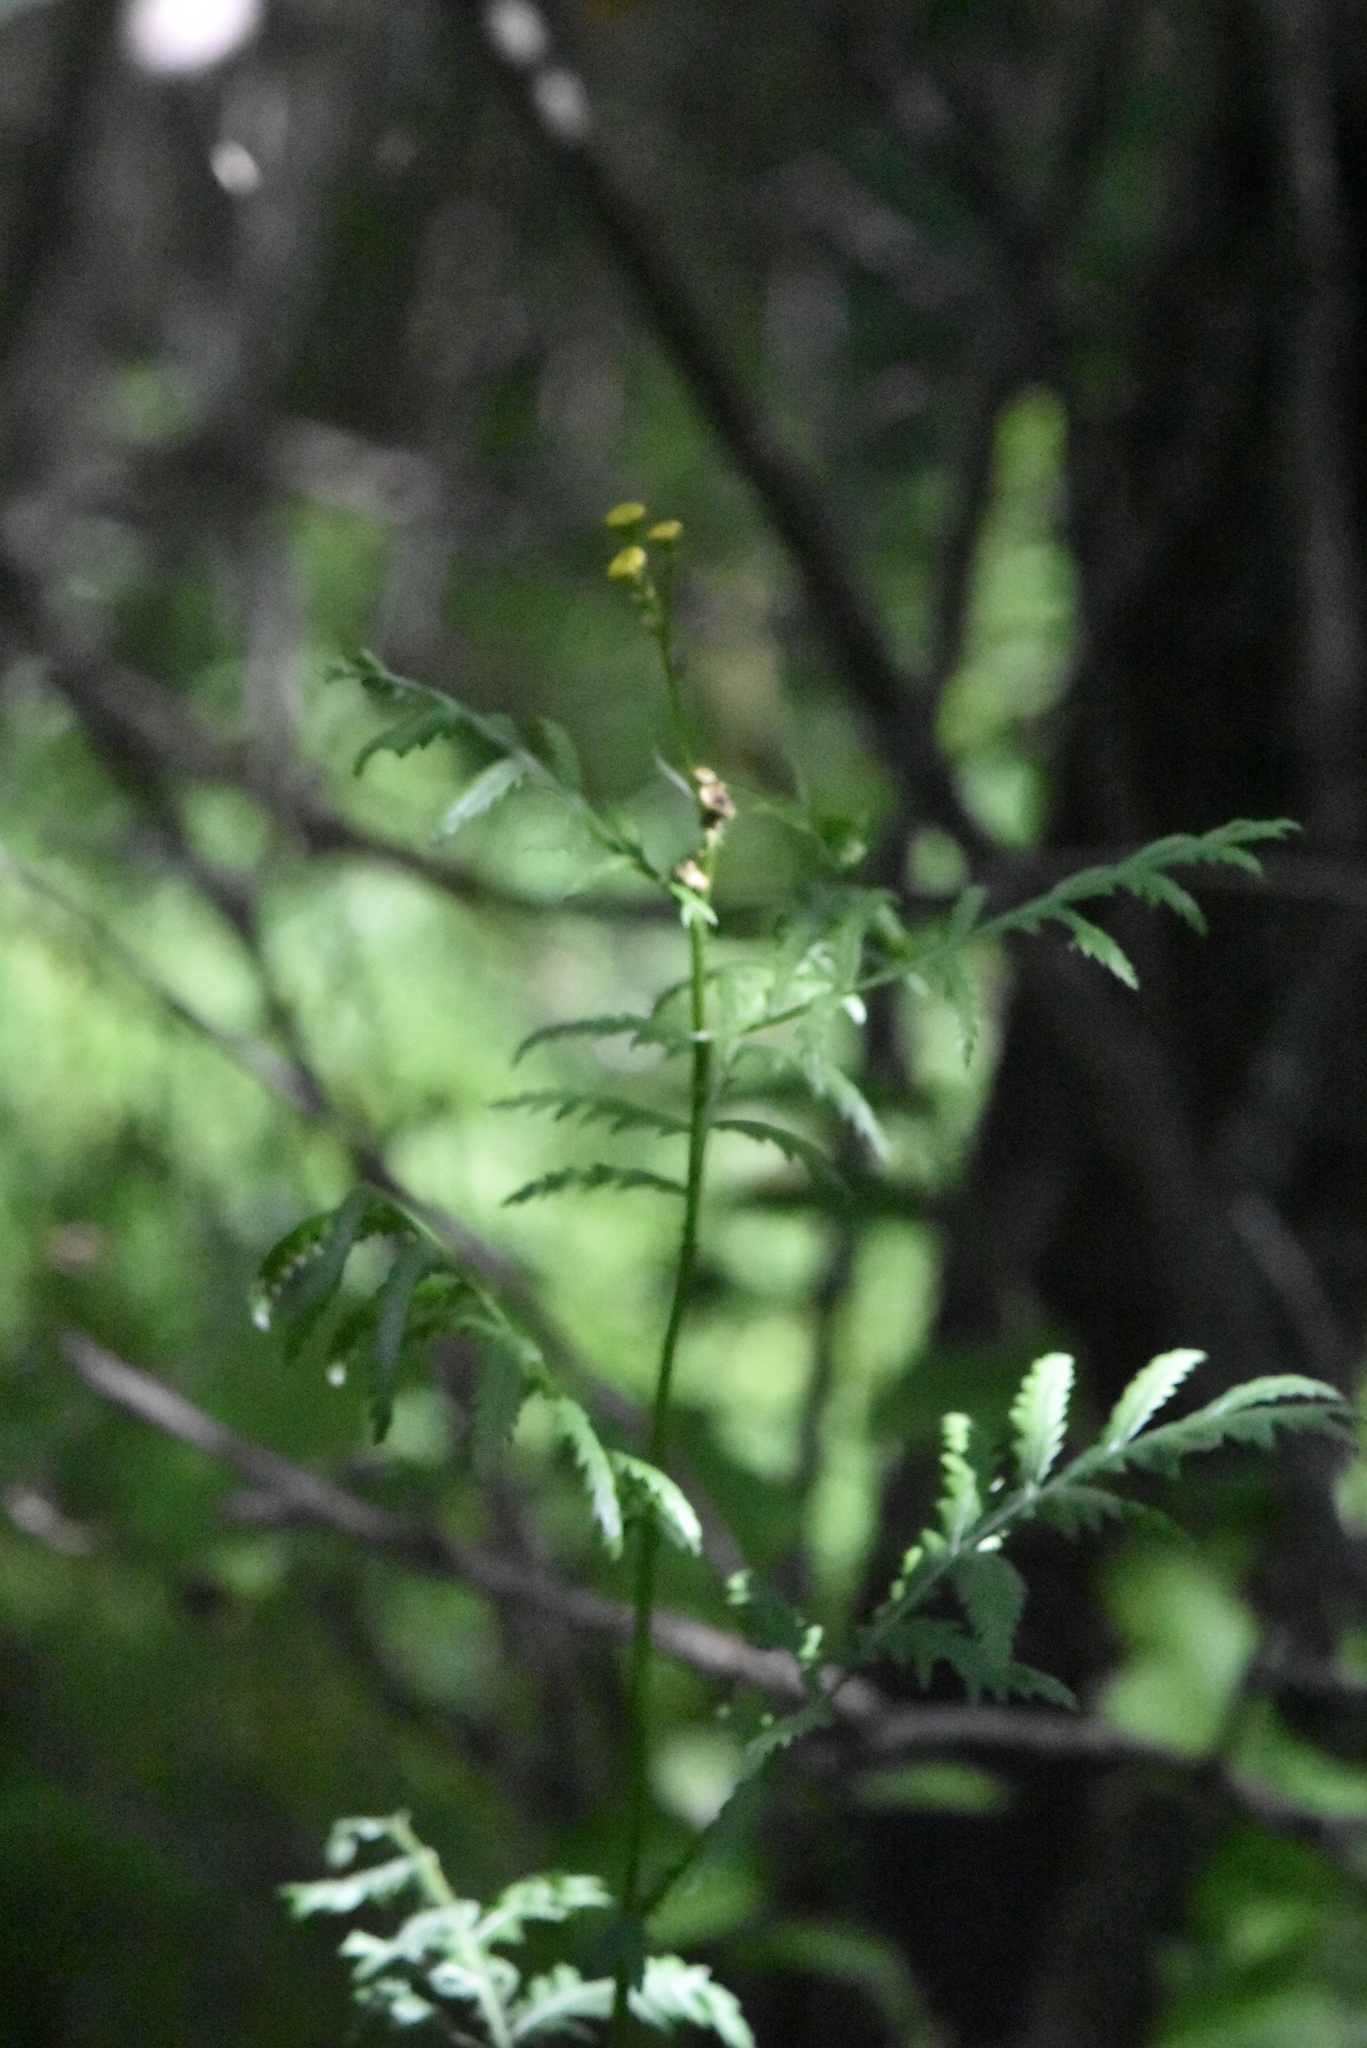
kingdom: Plantae
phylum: Tracheophyta
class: Magnoliopsida
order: Asterales
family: Asteraceae
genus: Tanacetum
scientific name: Tanacetum vulgare
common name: Common tansy
